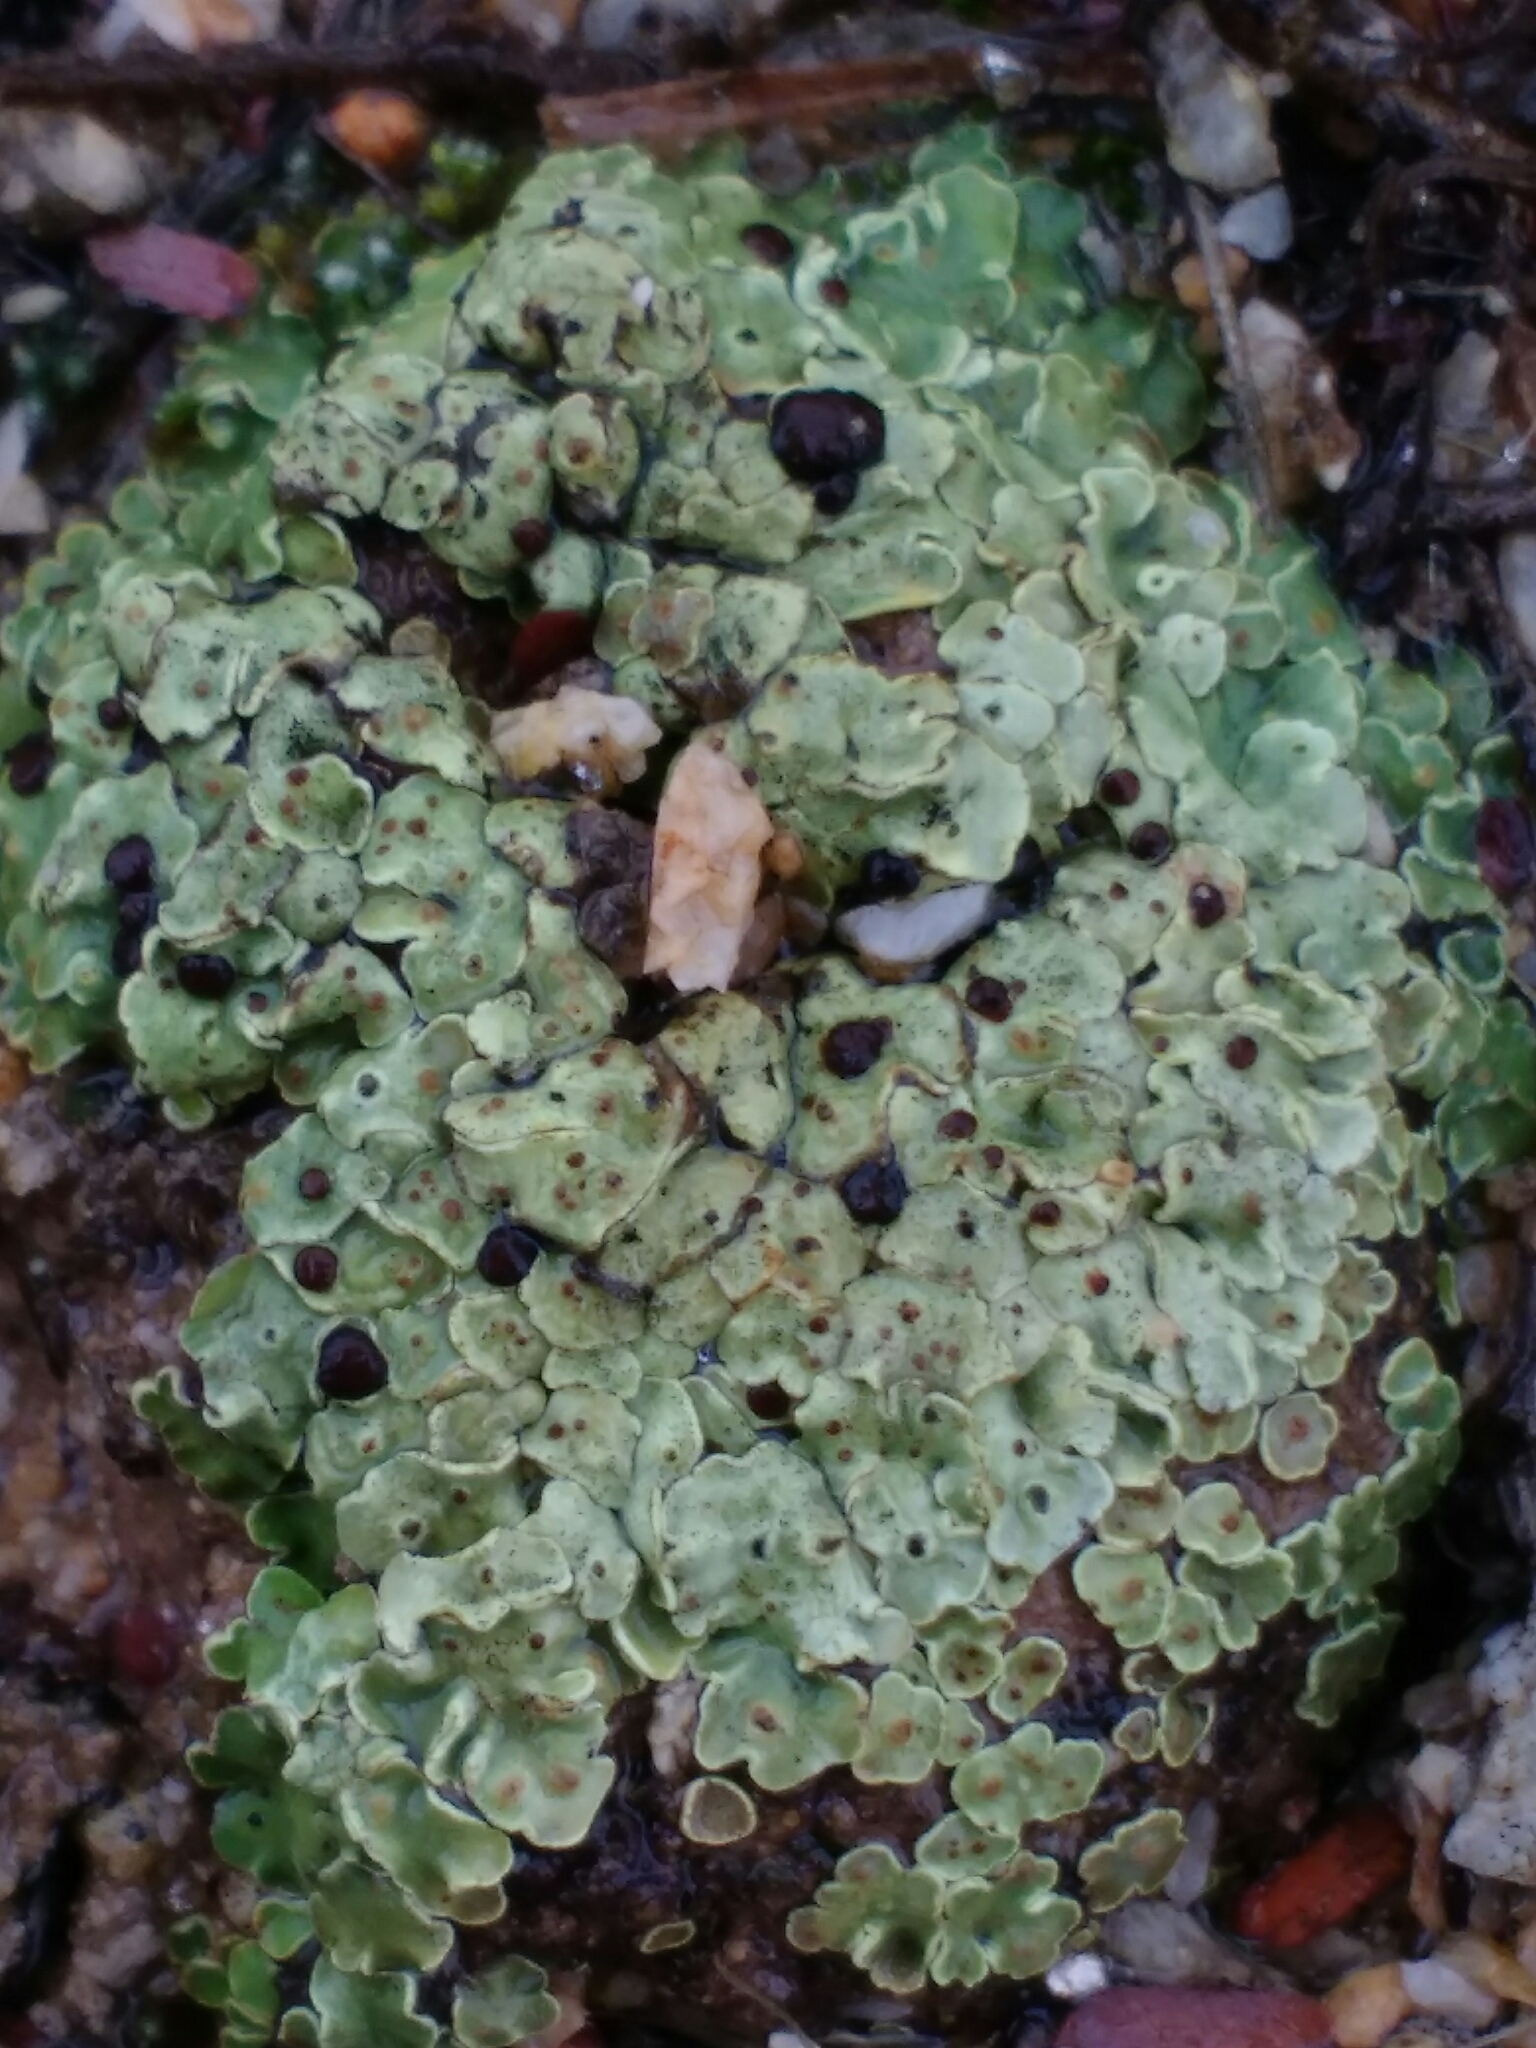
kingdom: Fungi
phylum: Ascomycota
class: Lecanoromycetes
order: Lecanorales
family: Psoraceae
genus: Psora
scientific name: Psora icterica
